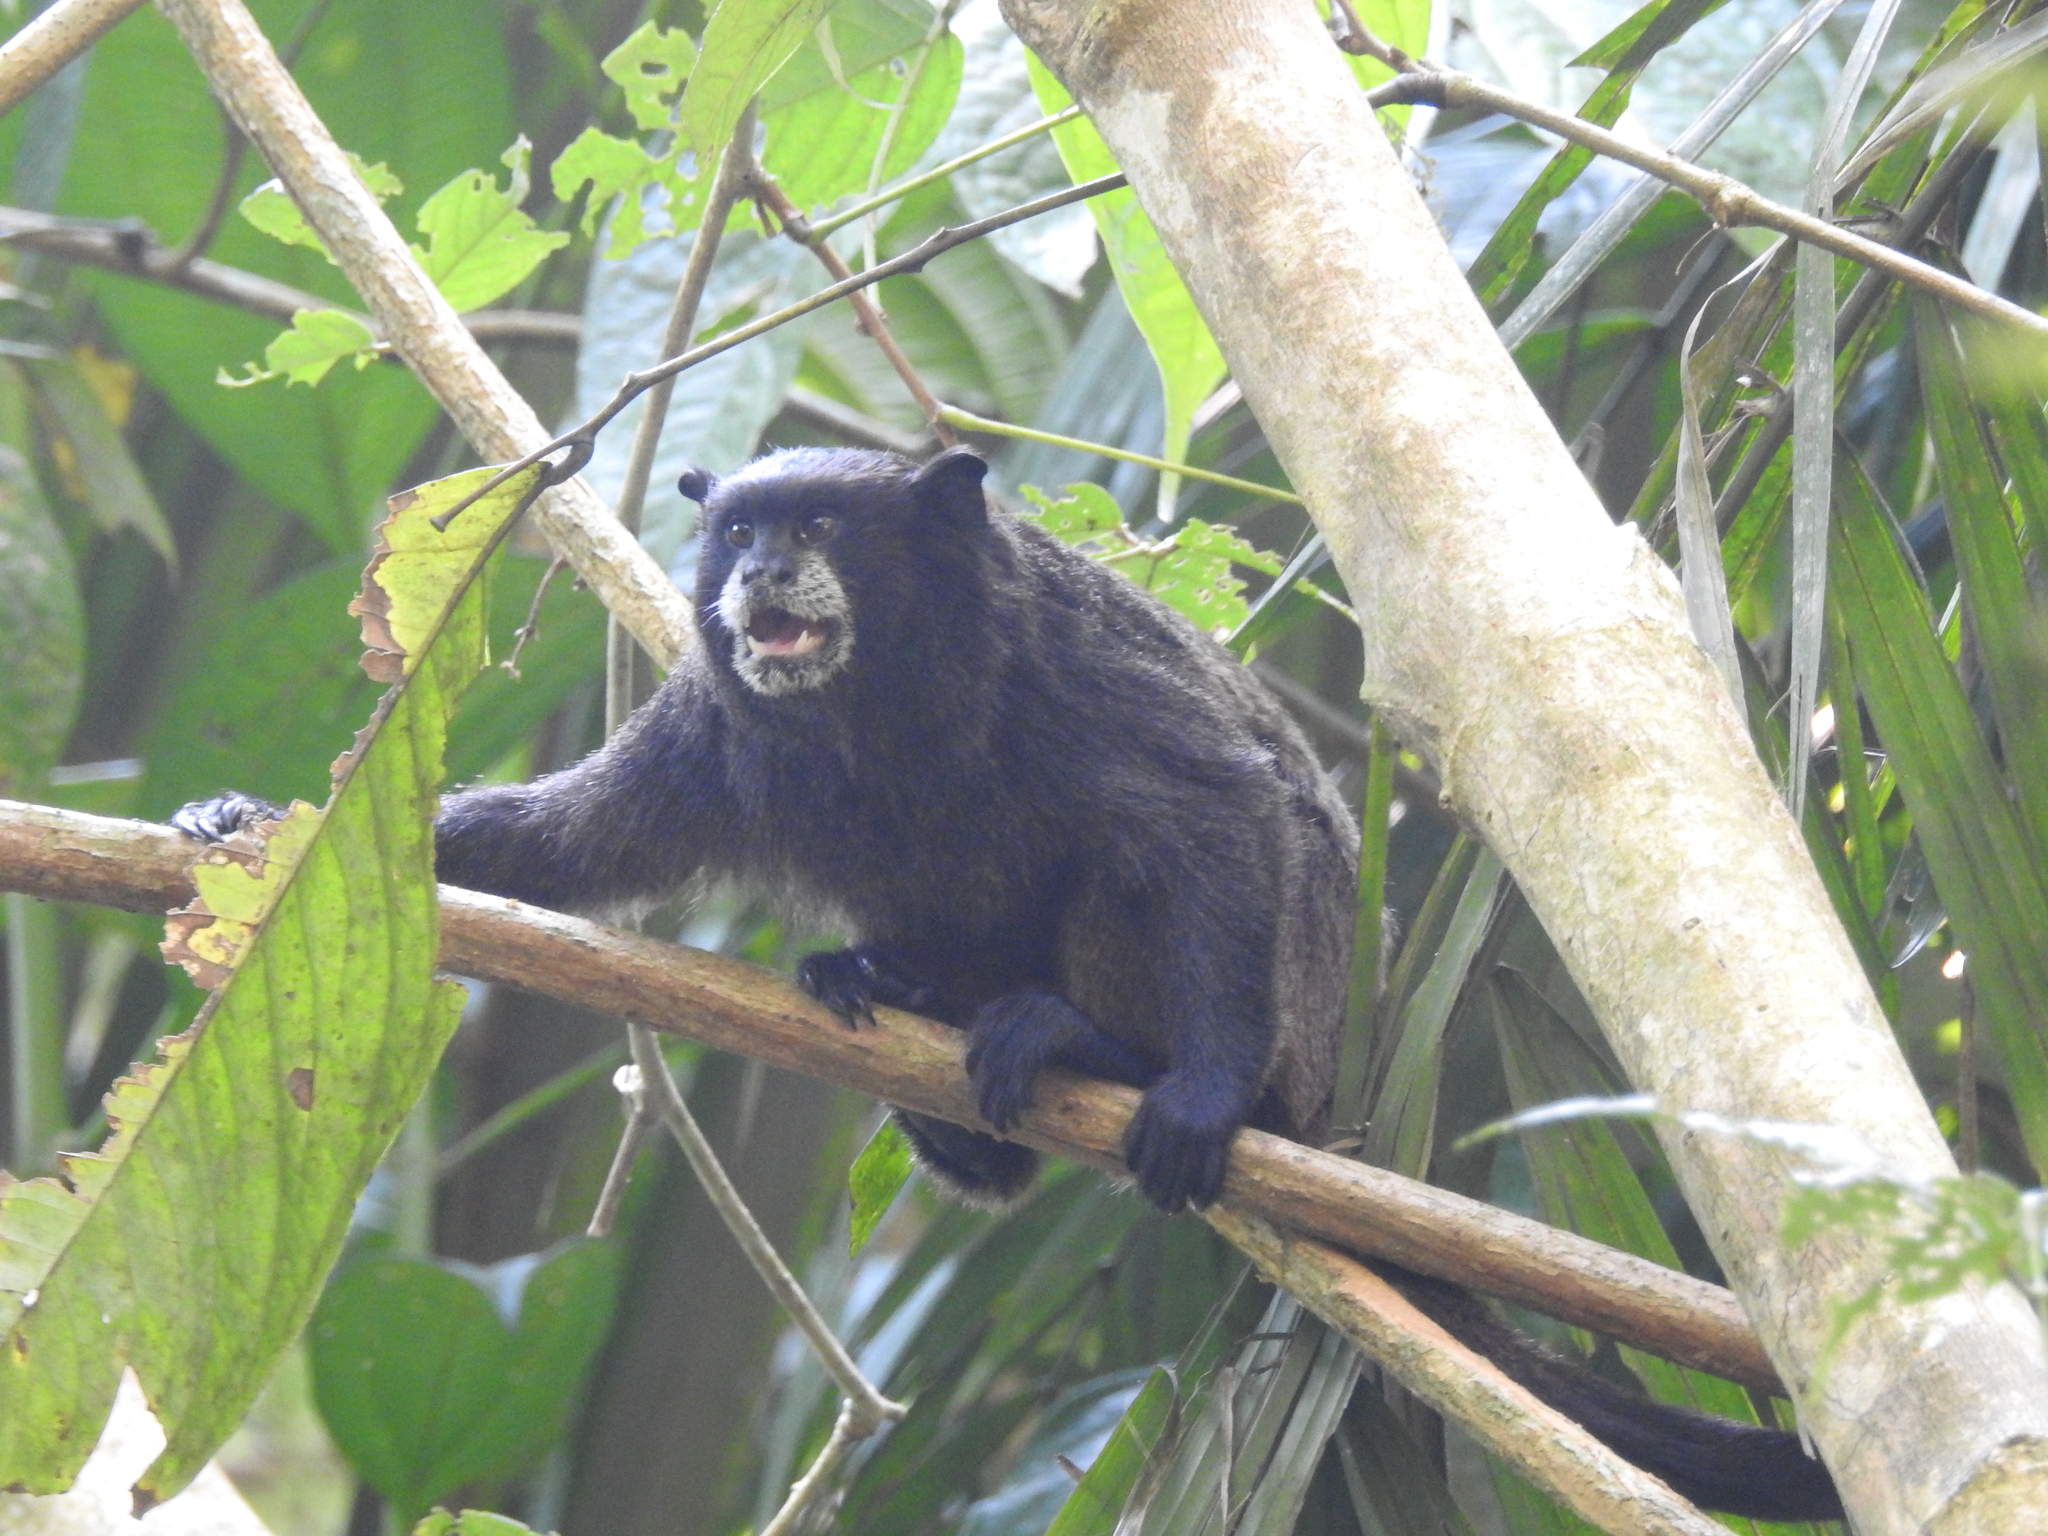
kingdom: Animalia
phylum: Chordata
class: Mammalia
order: Primates
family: Callitrichidae
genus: Leontocebus
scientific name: Leontocebus nigricollis
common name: Black-mantled tamarin
